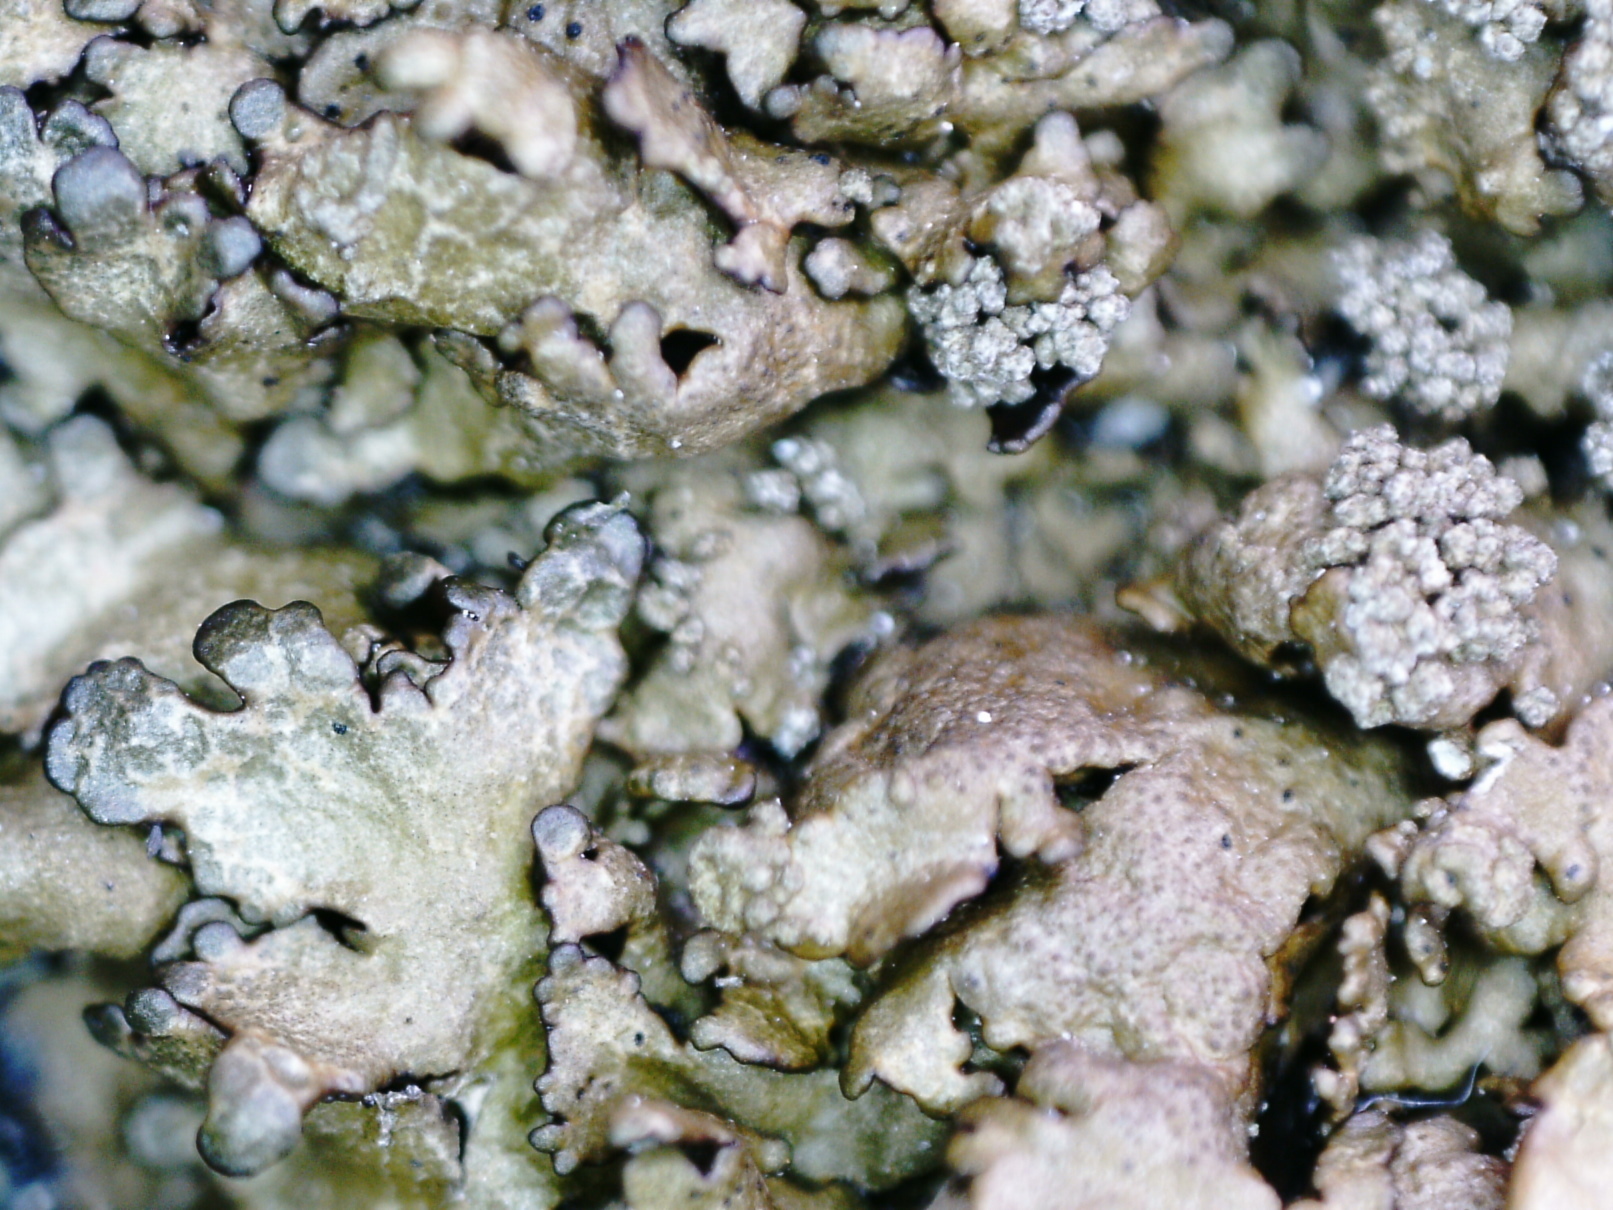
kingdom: Fungi
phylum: Ascomycota
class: Lecanoromycetes
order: Lecanorales
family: Parmeliaceae
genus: Xanthoparmelia
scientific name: Xanthoparmelia loxodes
